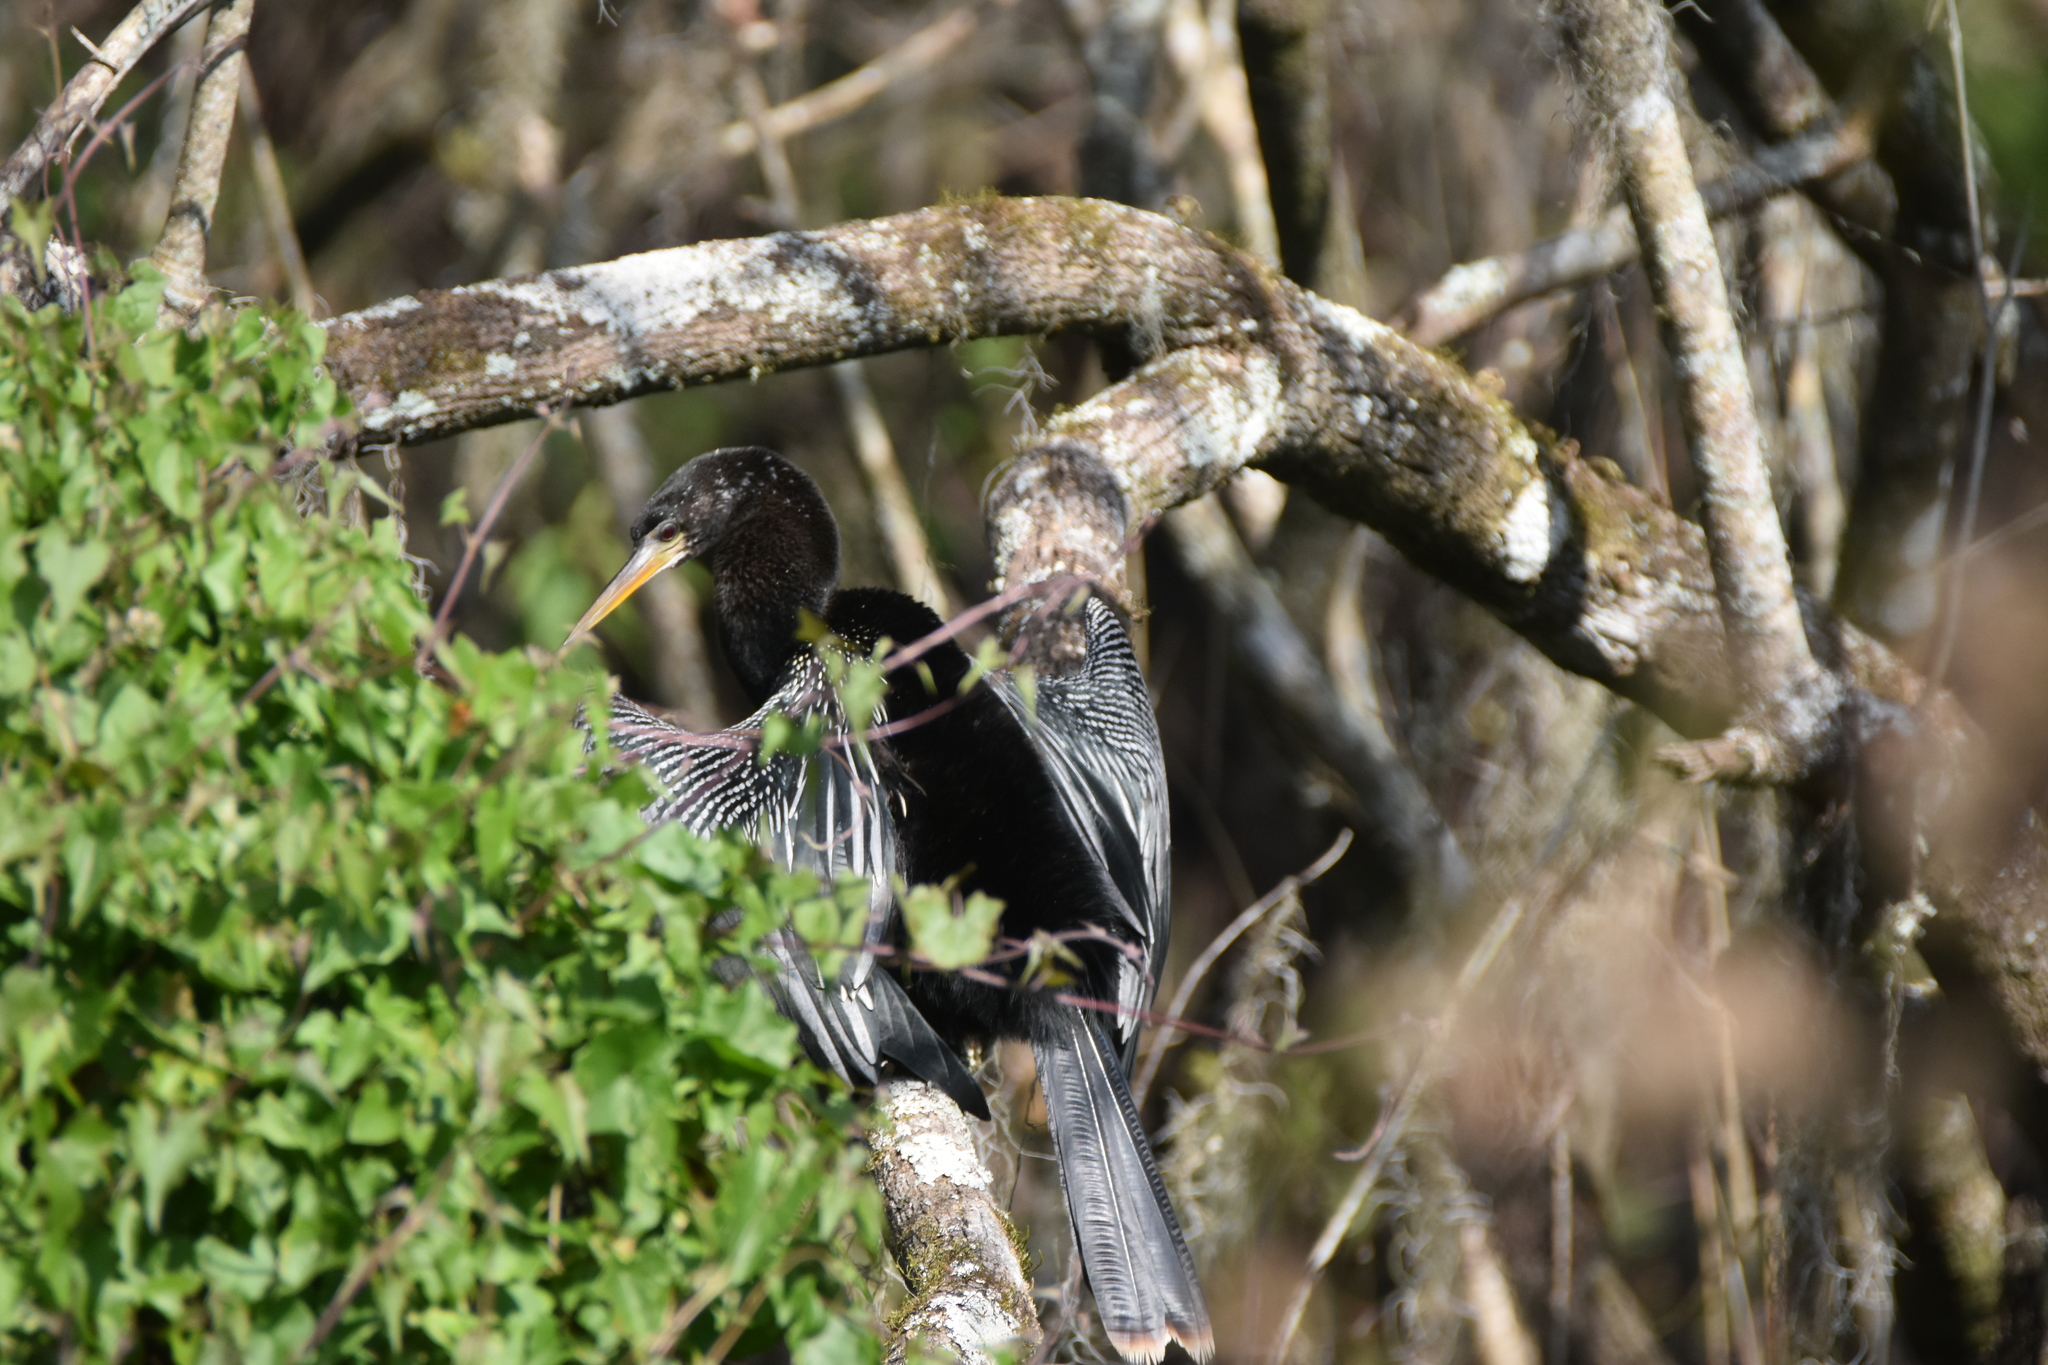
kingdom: Animalia
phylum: Chordata
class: Aves
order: Suliformes
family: Anhingidae
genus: Anhinga
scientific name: Anhinga anhinga
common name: Anhinga
